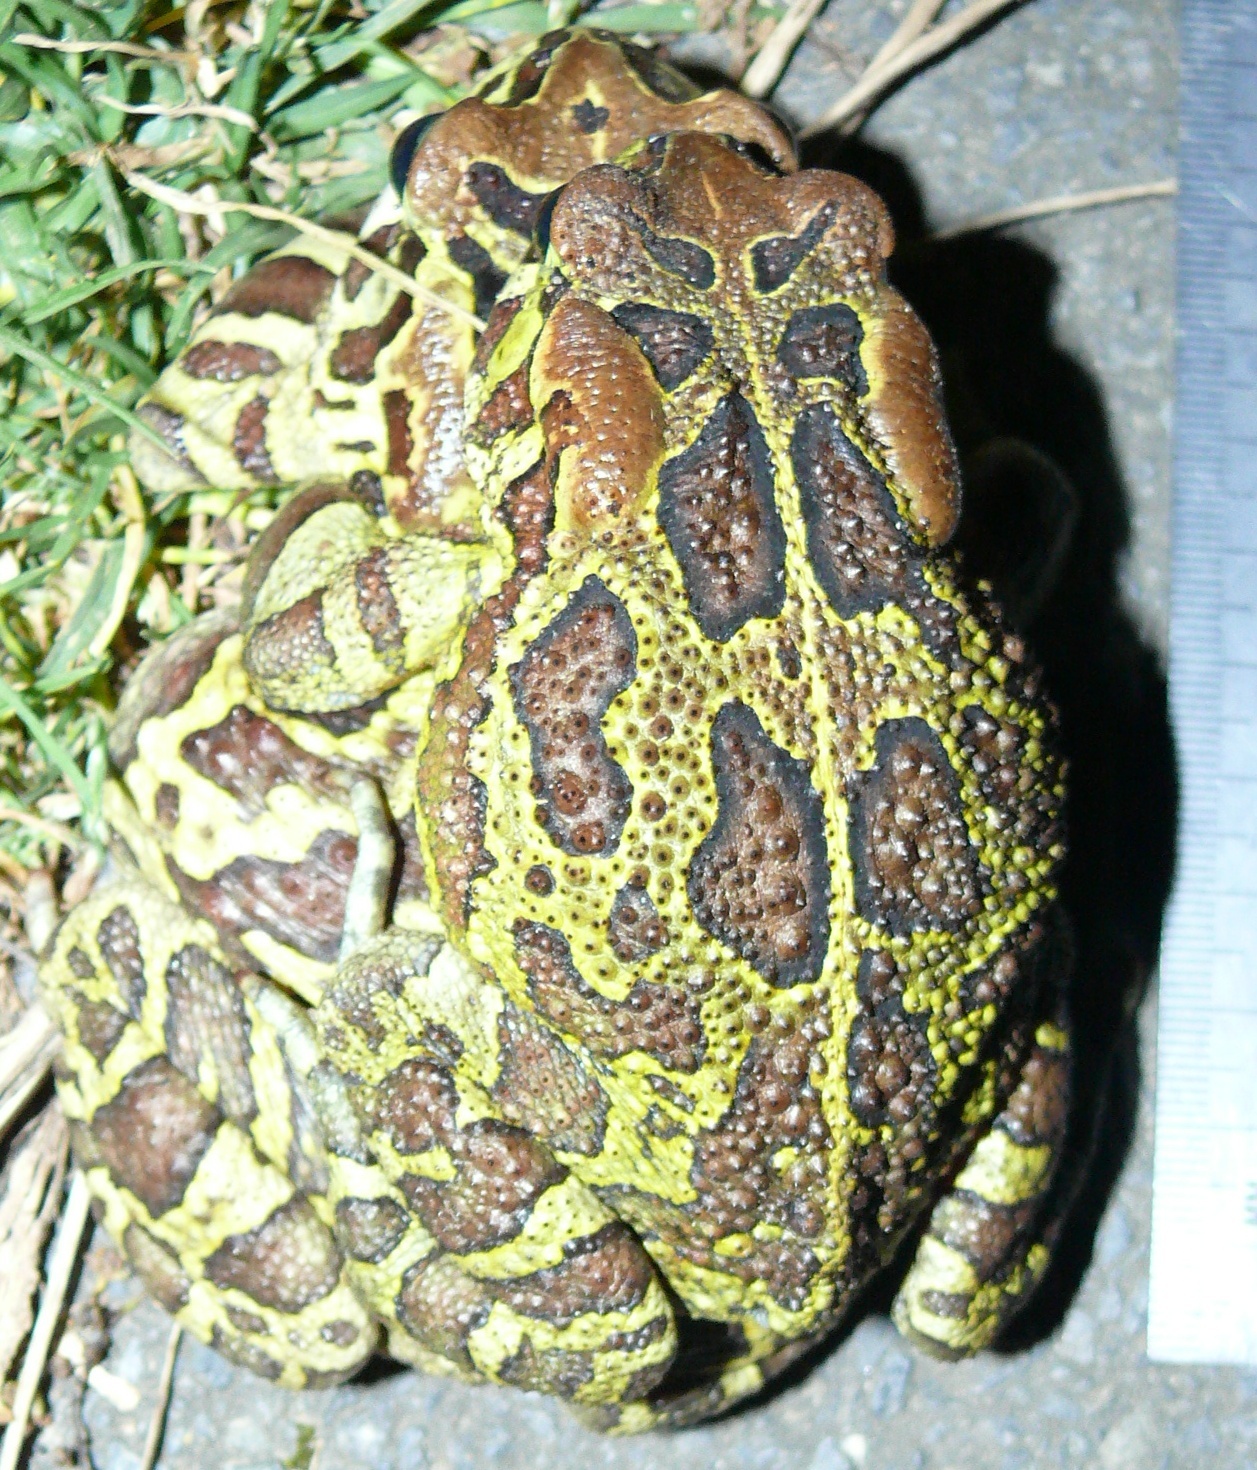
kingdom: Animalia
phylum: Chordata
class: Amphibia
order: Anura
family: Bufonidae
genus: Sclerophrys
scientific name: Sclerophrys pantherina
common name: Panther toad
